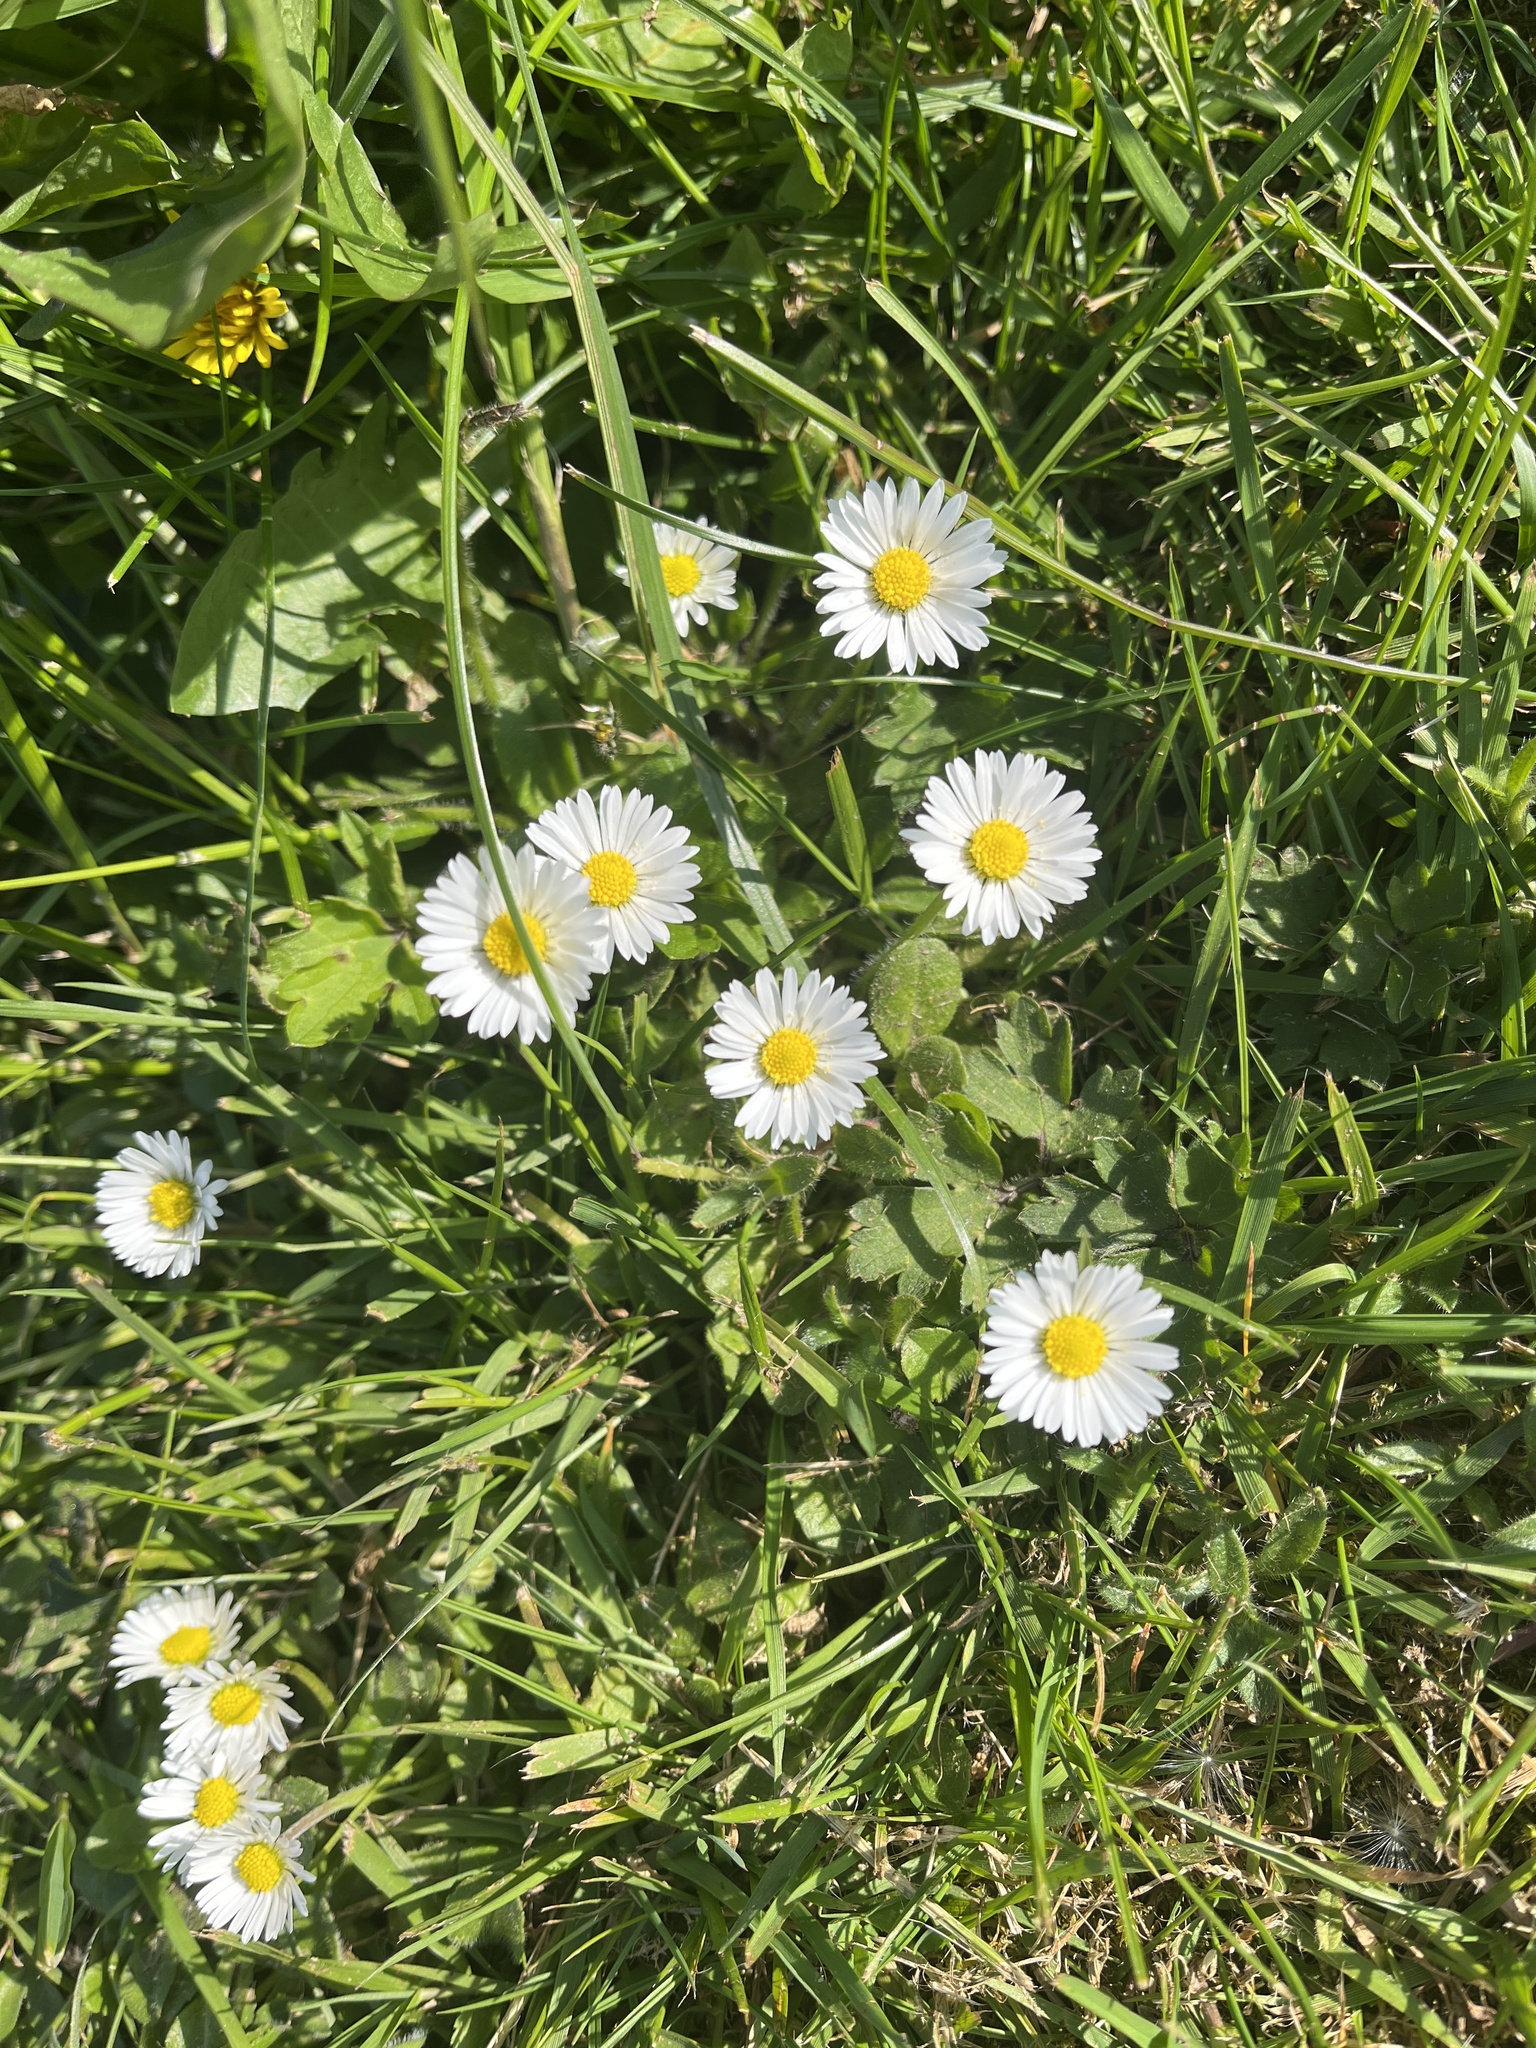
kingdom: Plantae
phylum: Tracheophyta
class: Magnoliopsida
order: Asterales
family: Asteraceae
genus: Bellis
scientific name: Bellis perennis
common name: Lawndaisy
